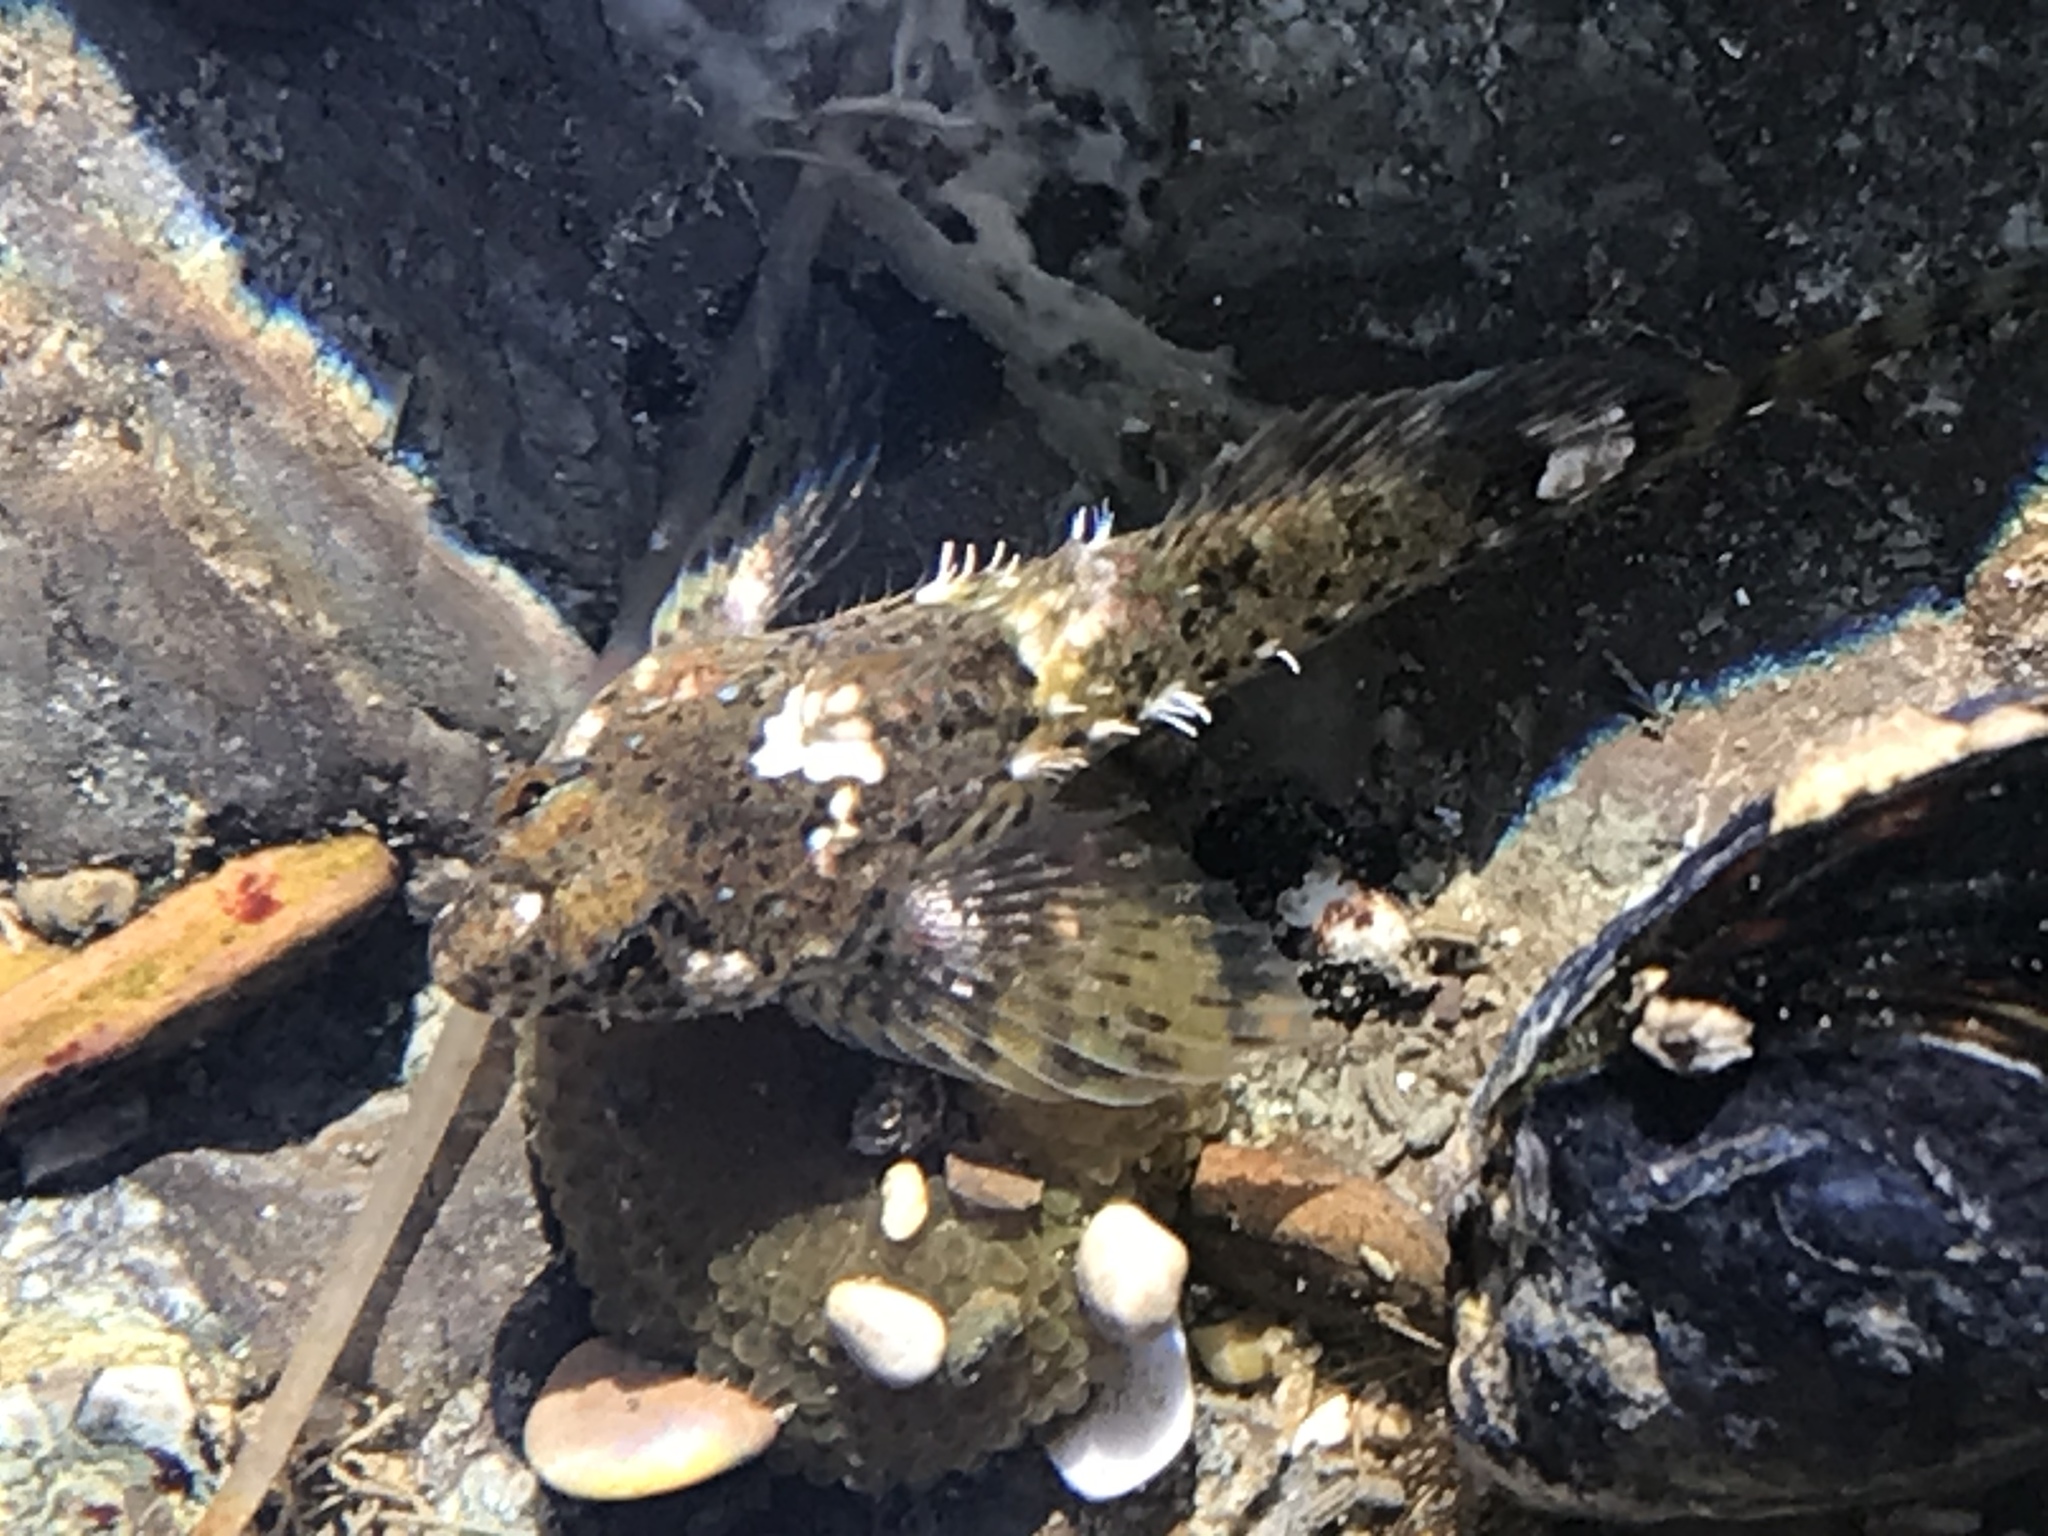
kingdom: Animalia
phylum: Chordata
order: Scorpaeniformes
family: Cottidae
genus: Clinocottus
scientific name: Clinocottus analis
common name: Woolly sculpin
